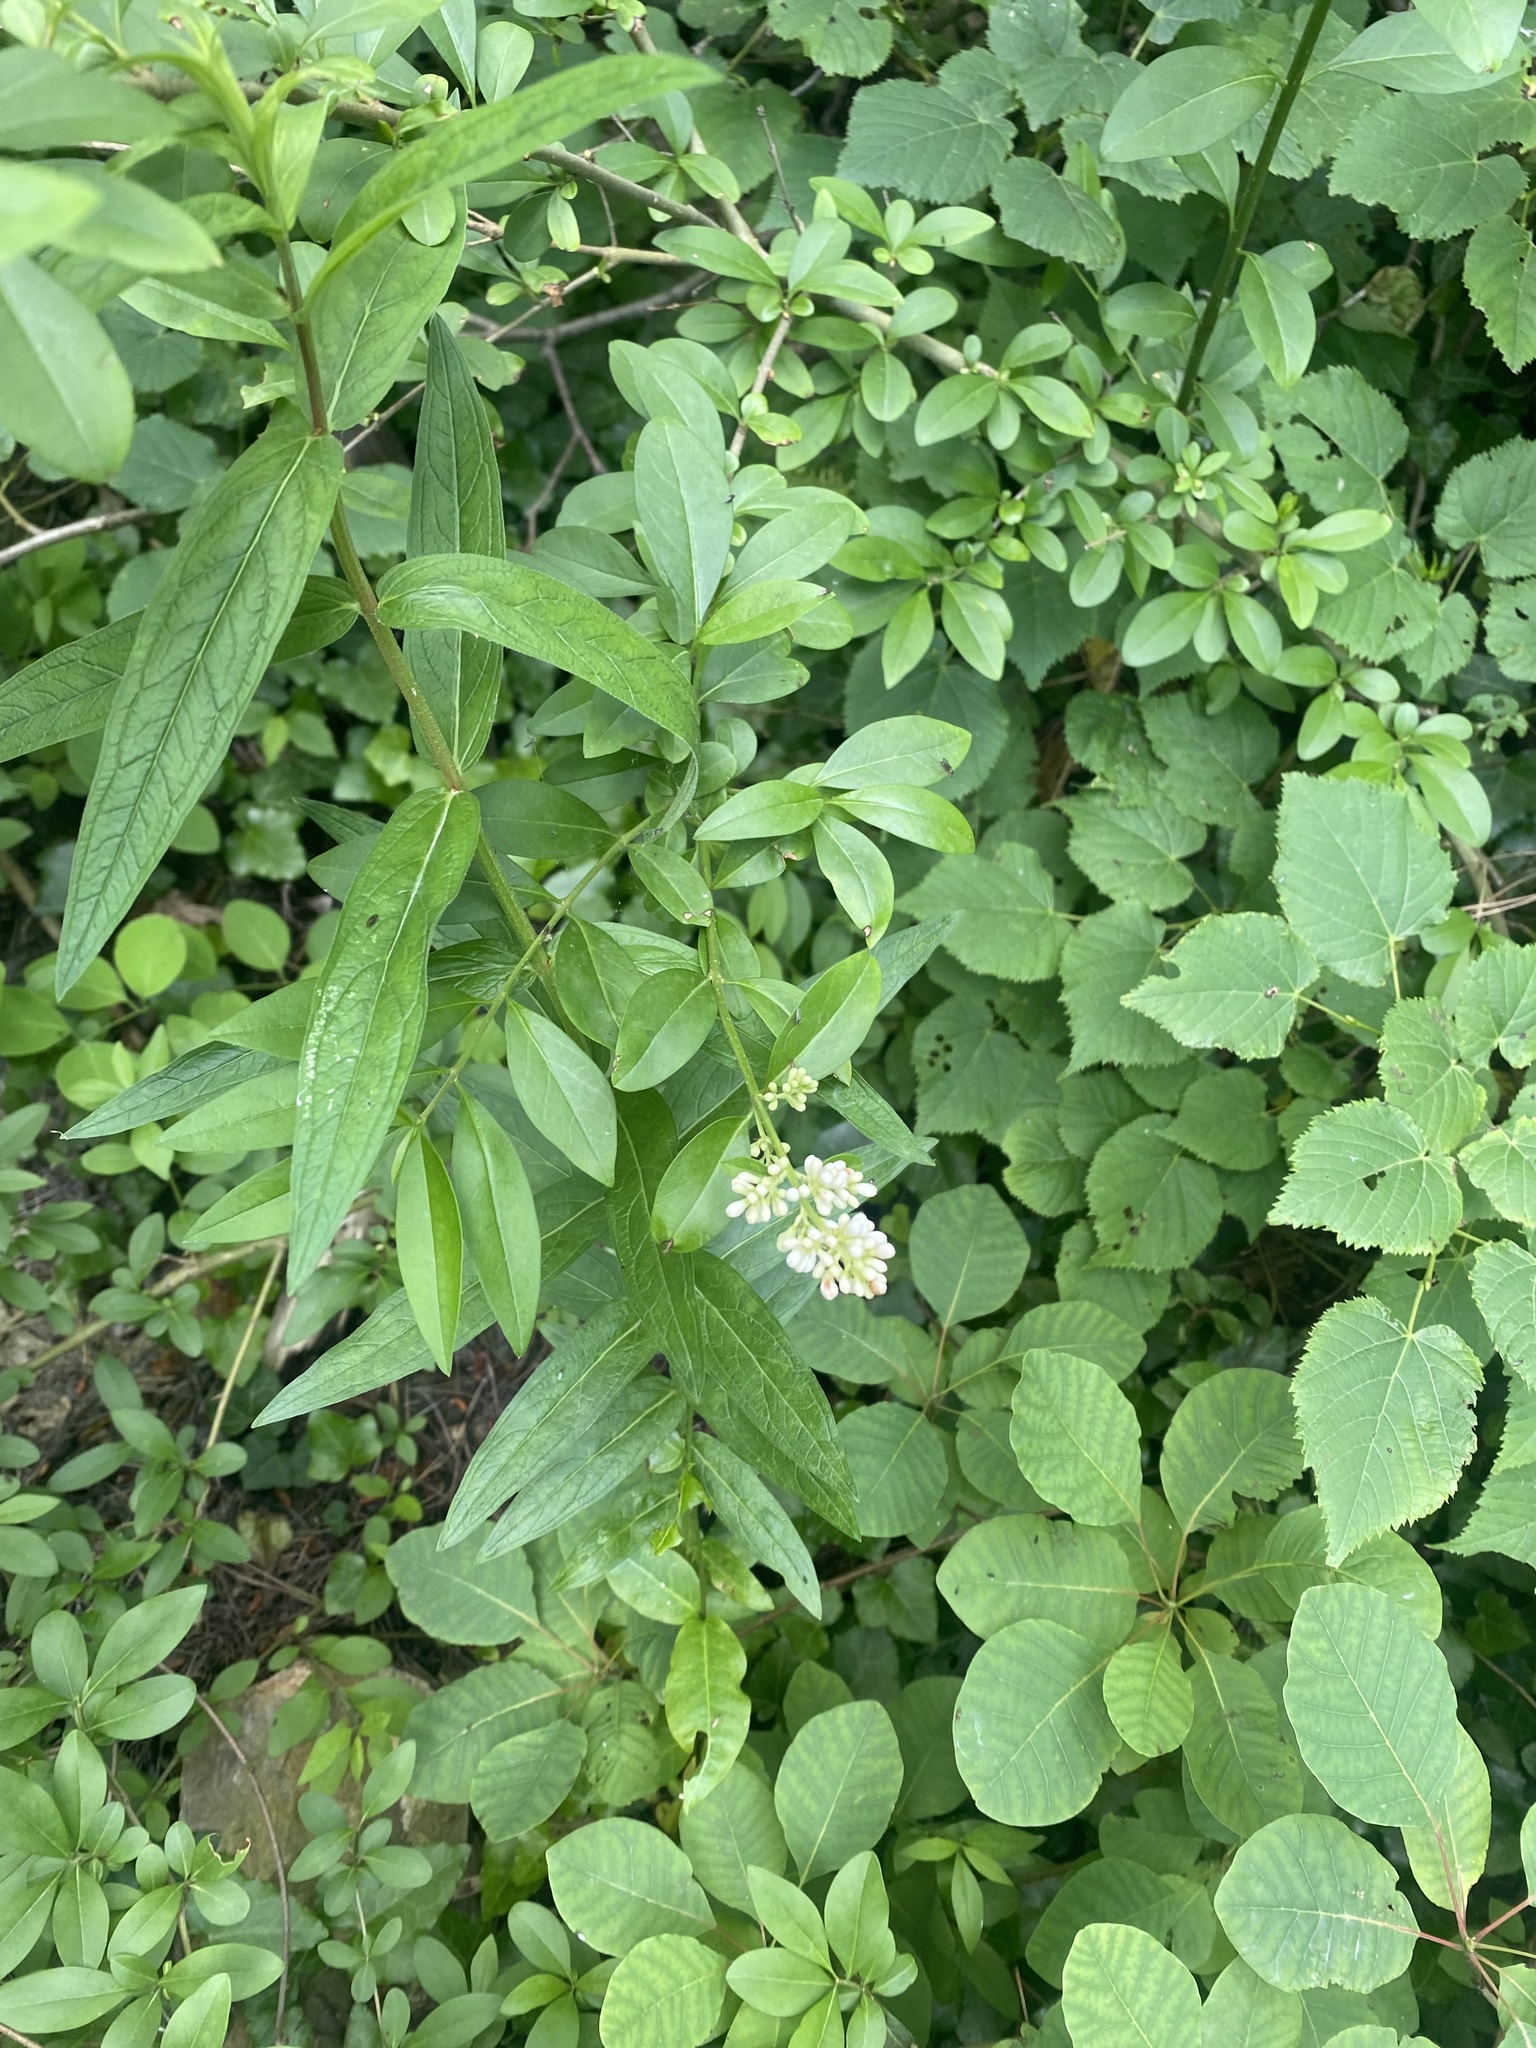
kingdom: Plantae
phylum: Tracheophyta
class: Magnoliopsida
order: Lamiales
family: Oleaceae
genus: Ligustrum
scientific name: Ligustrum vulgare
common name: Wild privet
